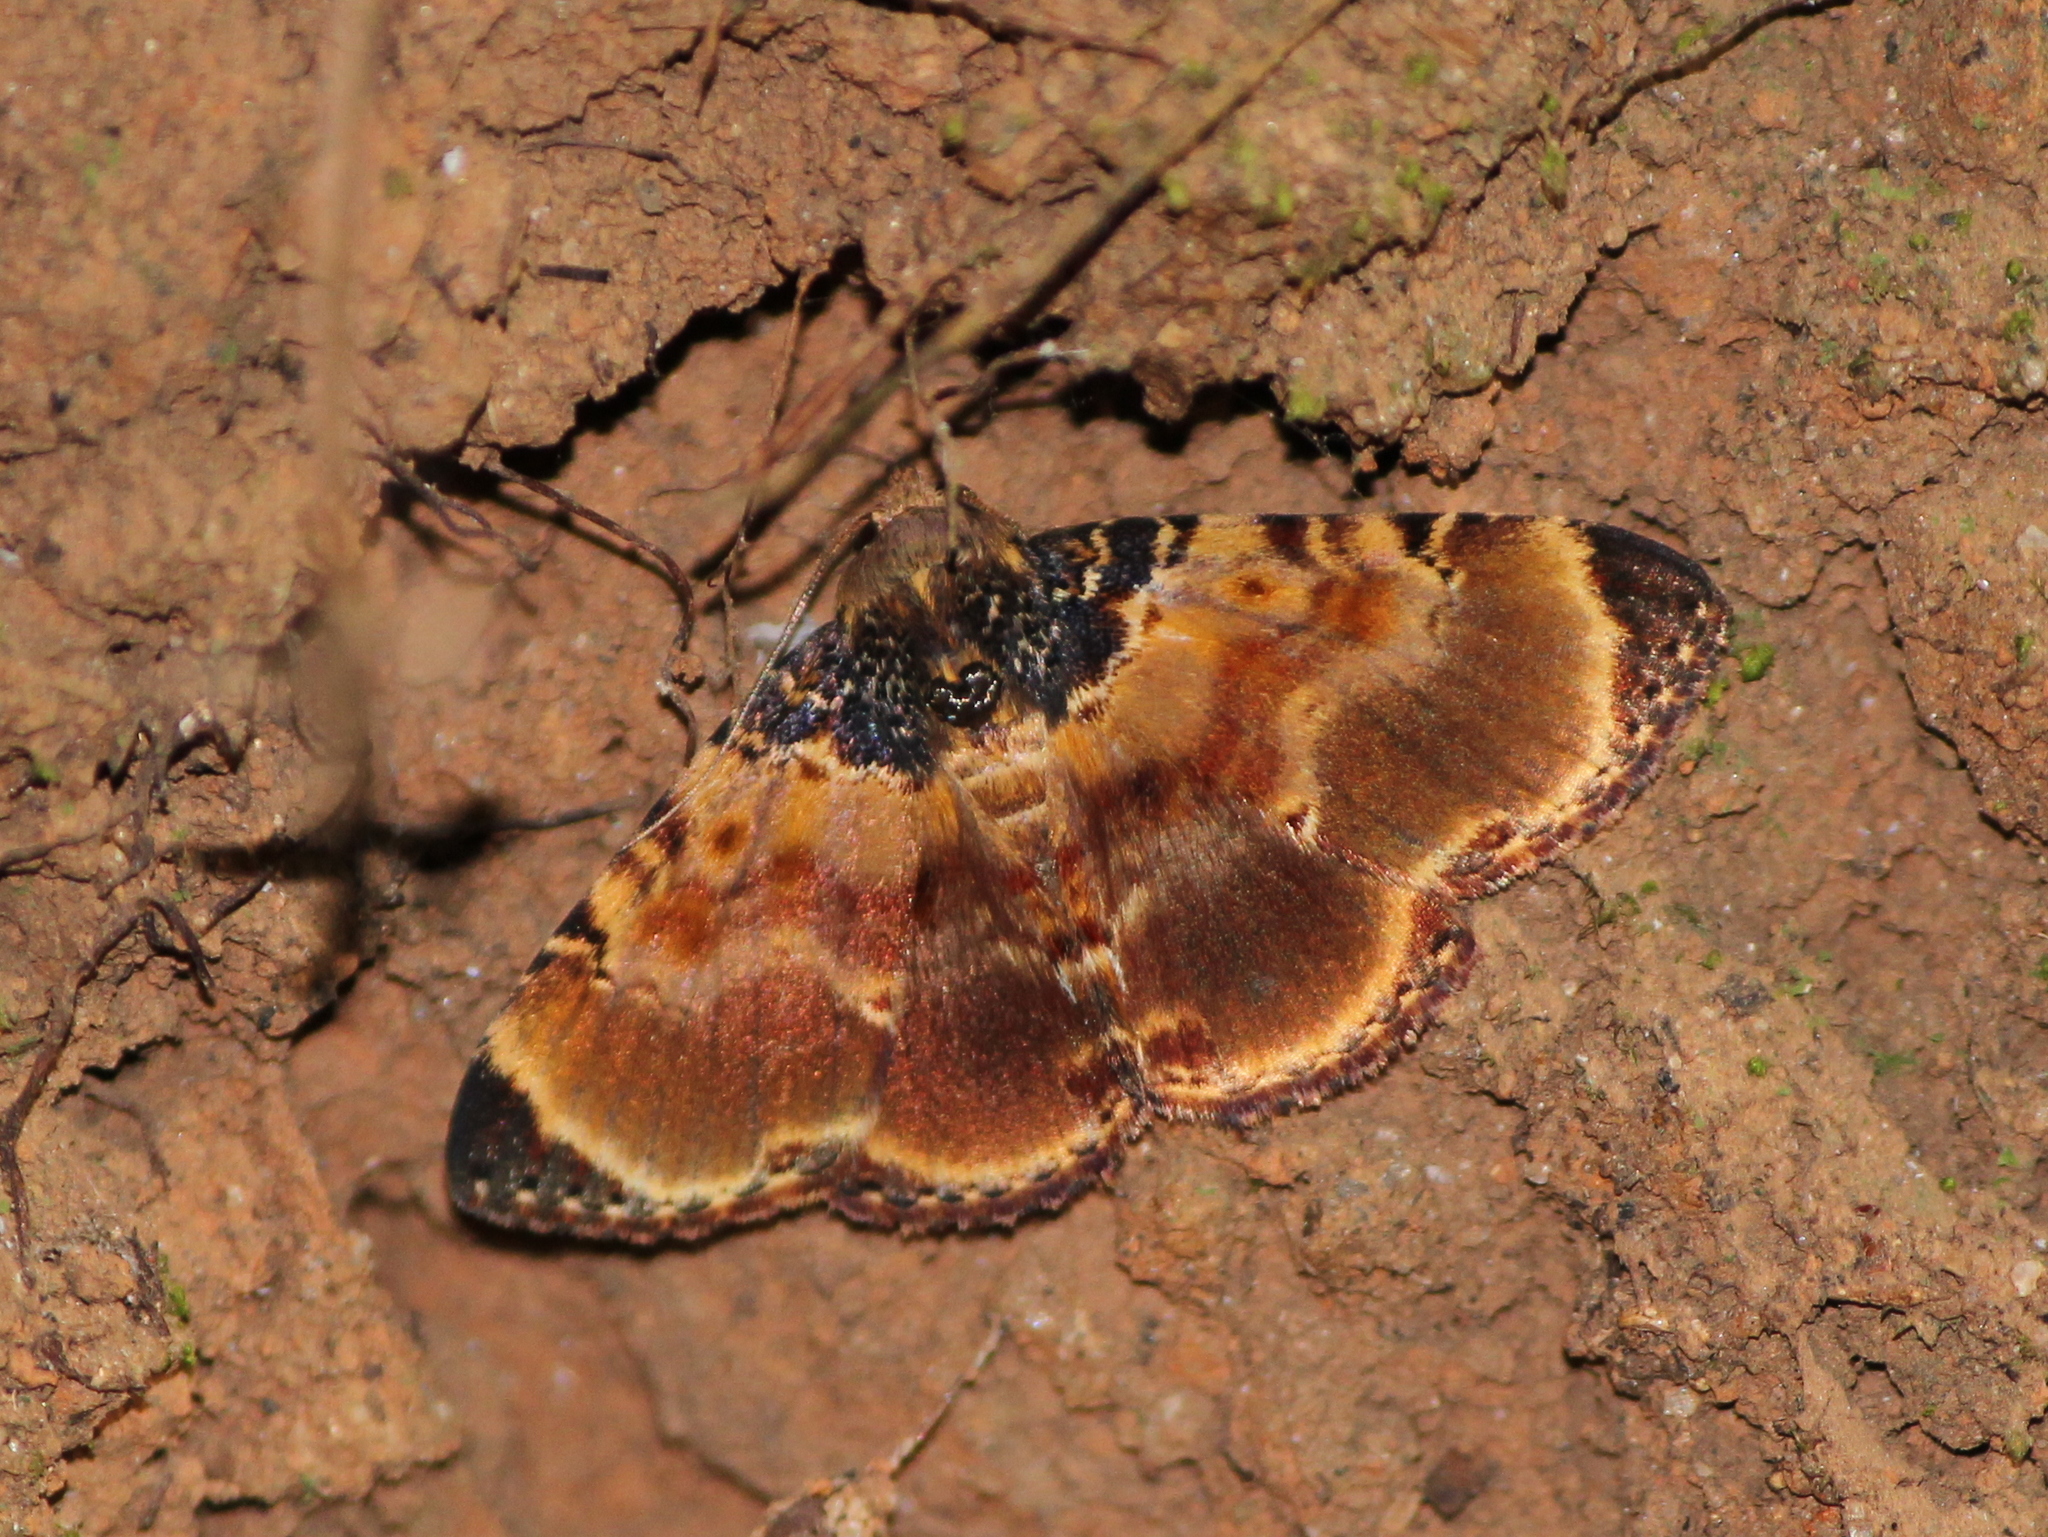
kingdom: Animalia
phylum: Arthropoda
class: Insecta
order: Lepidoptera
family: Erebidae
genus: Diomea
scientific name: Diomea lignicolora
